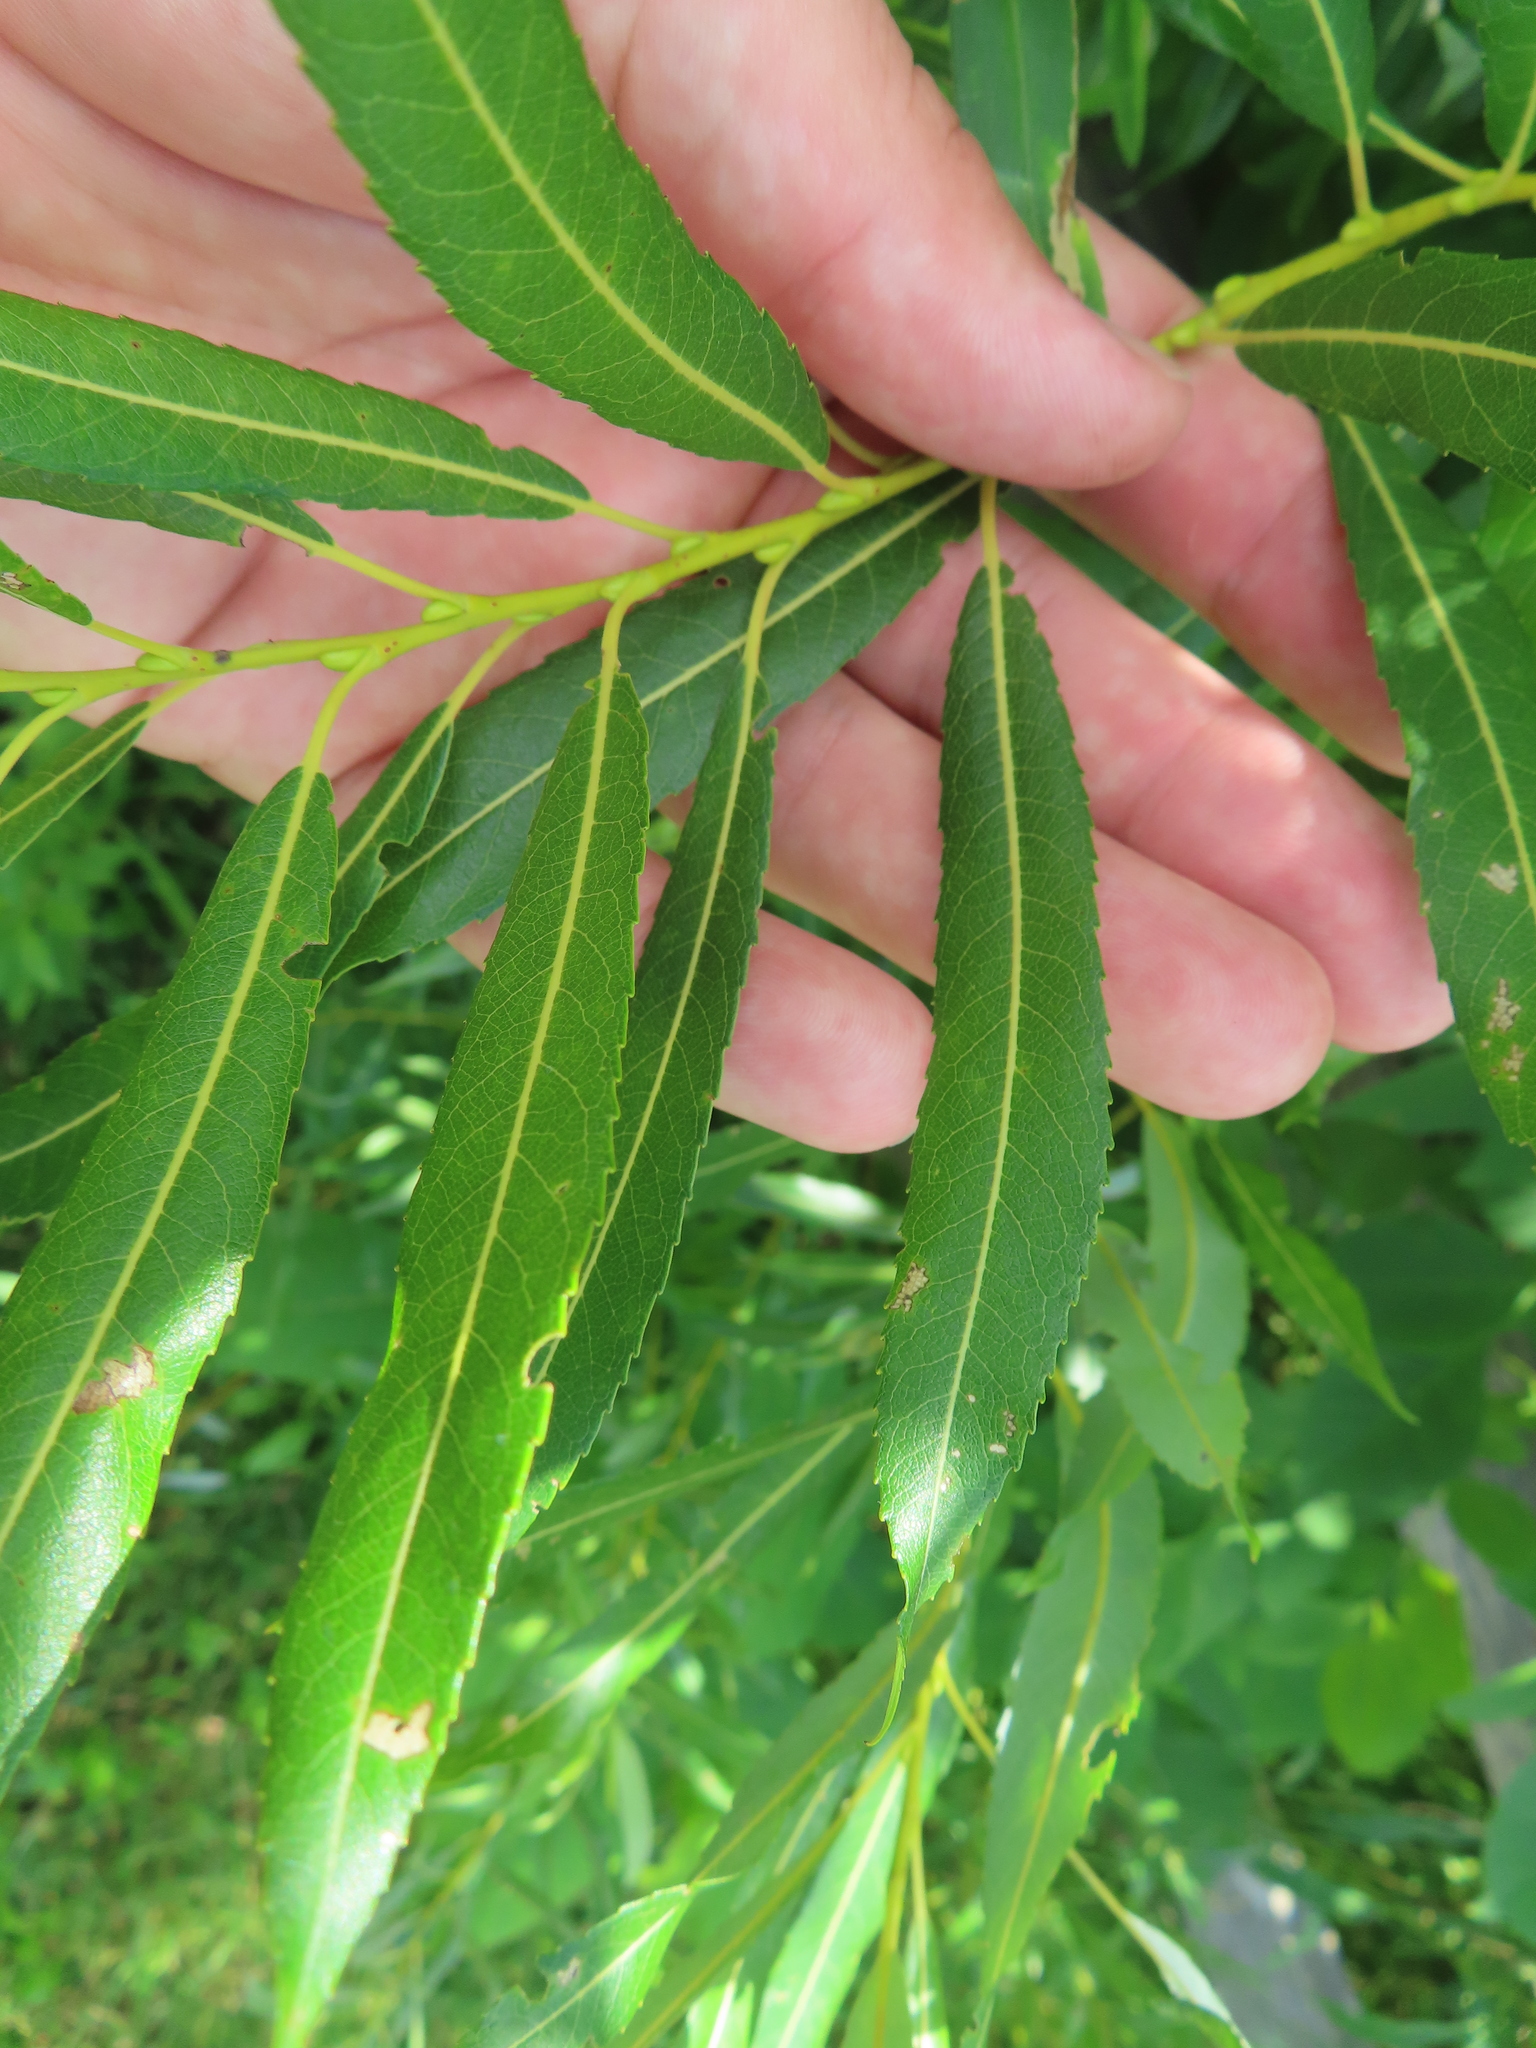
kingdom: Plantae
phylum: Tracheophyta
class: Magnoliopsida
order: Malpighiales
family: Salicaceae
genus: Salix
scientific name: Salix petiolaris
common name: Slender willow
